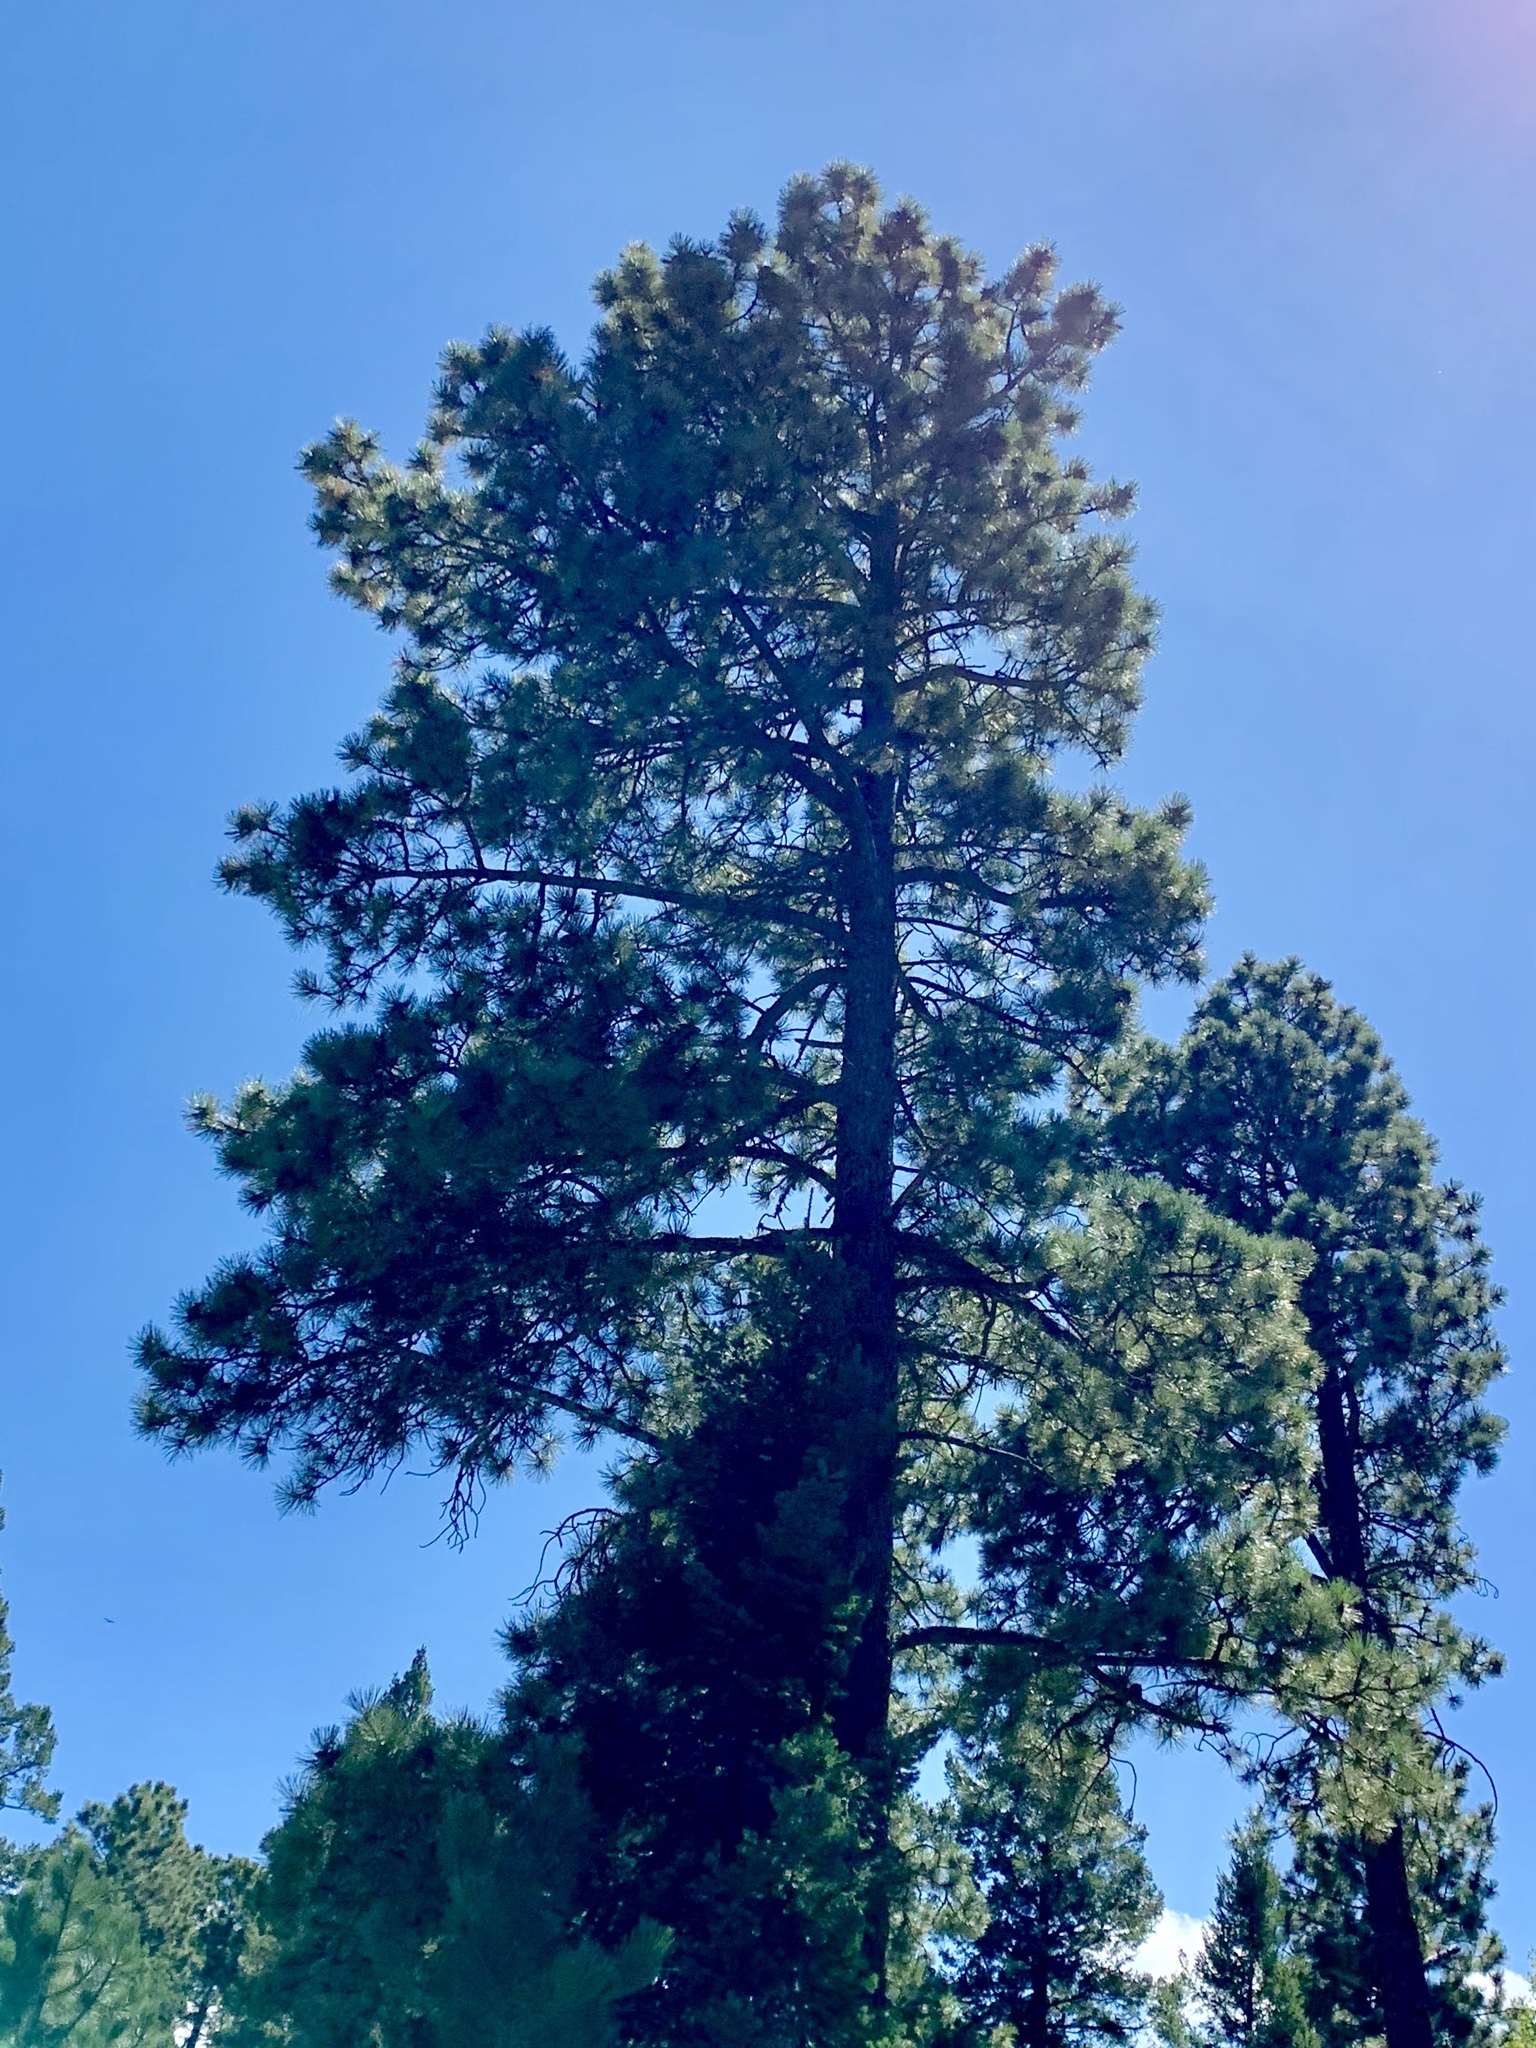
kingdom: Plantae
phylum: Tracheophyta
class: Pinopsida
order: Pinales
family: Pinaceae
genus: Pinus
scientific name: Pinus ponderosa
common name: Western yellow-pine
